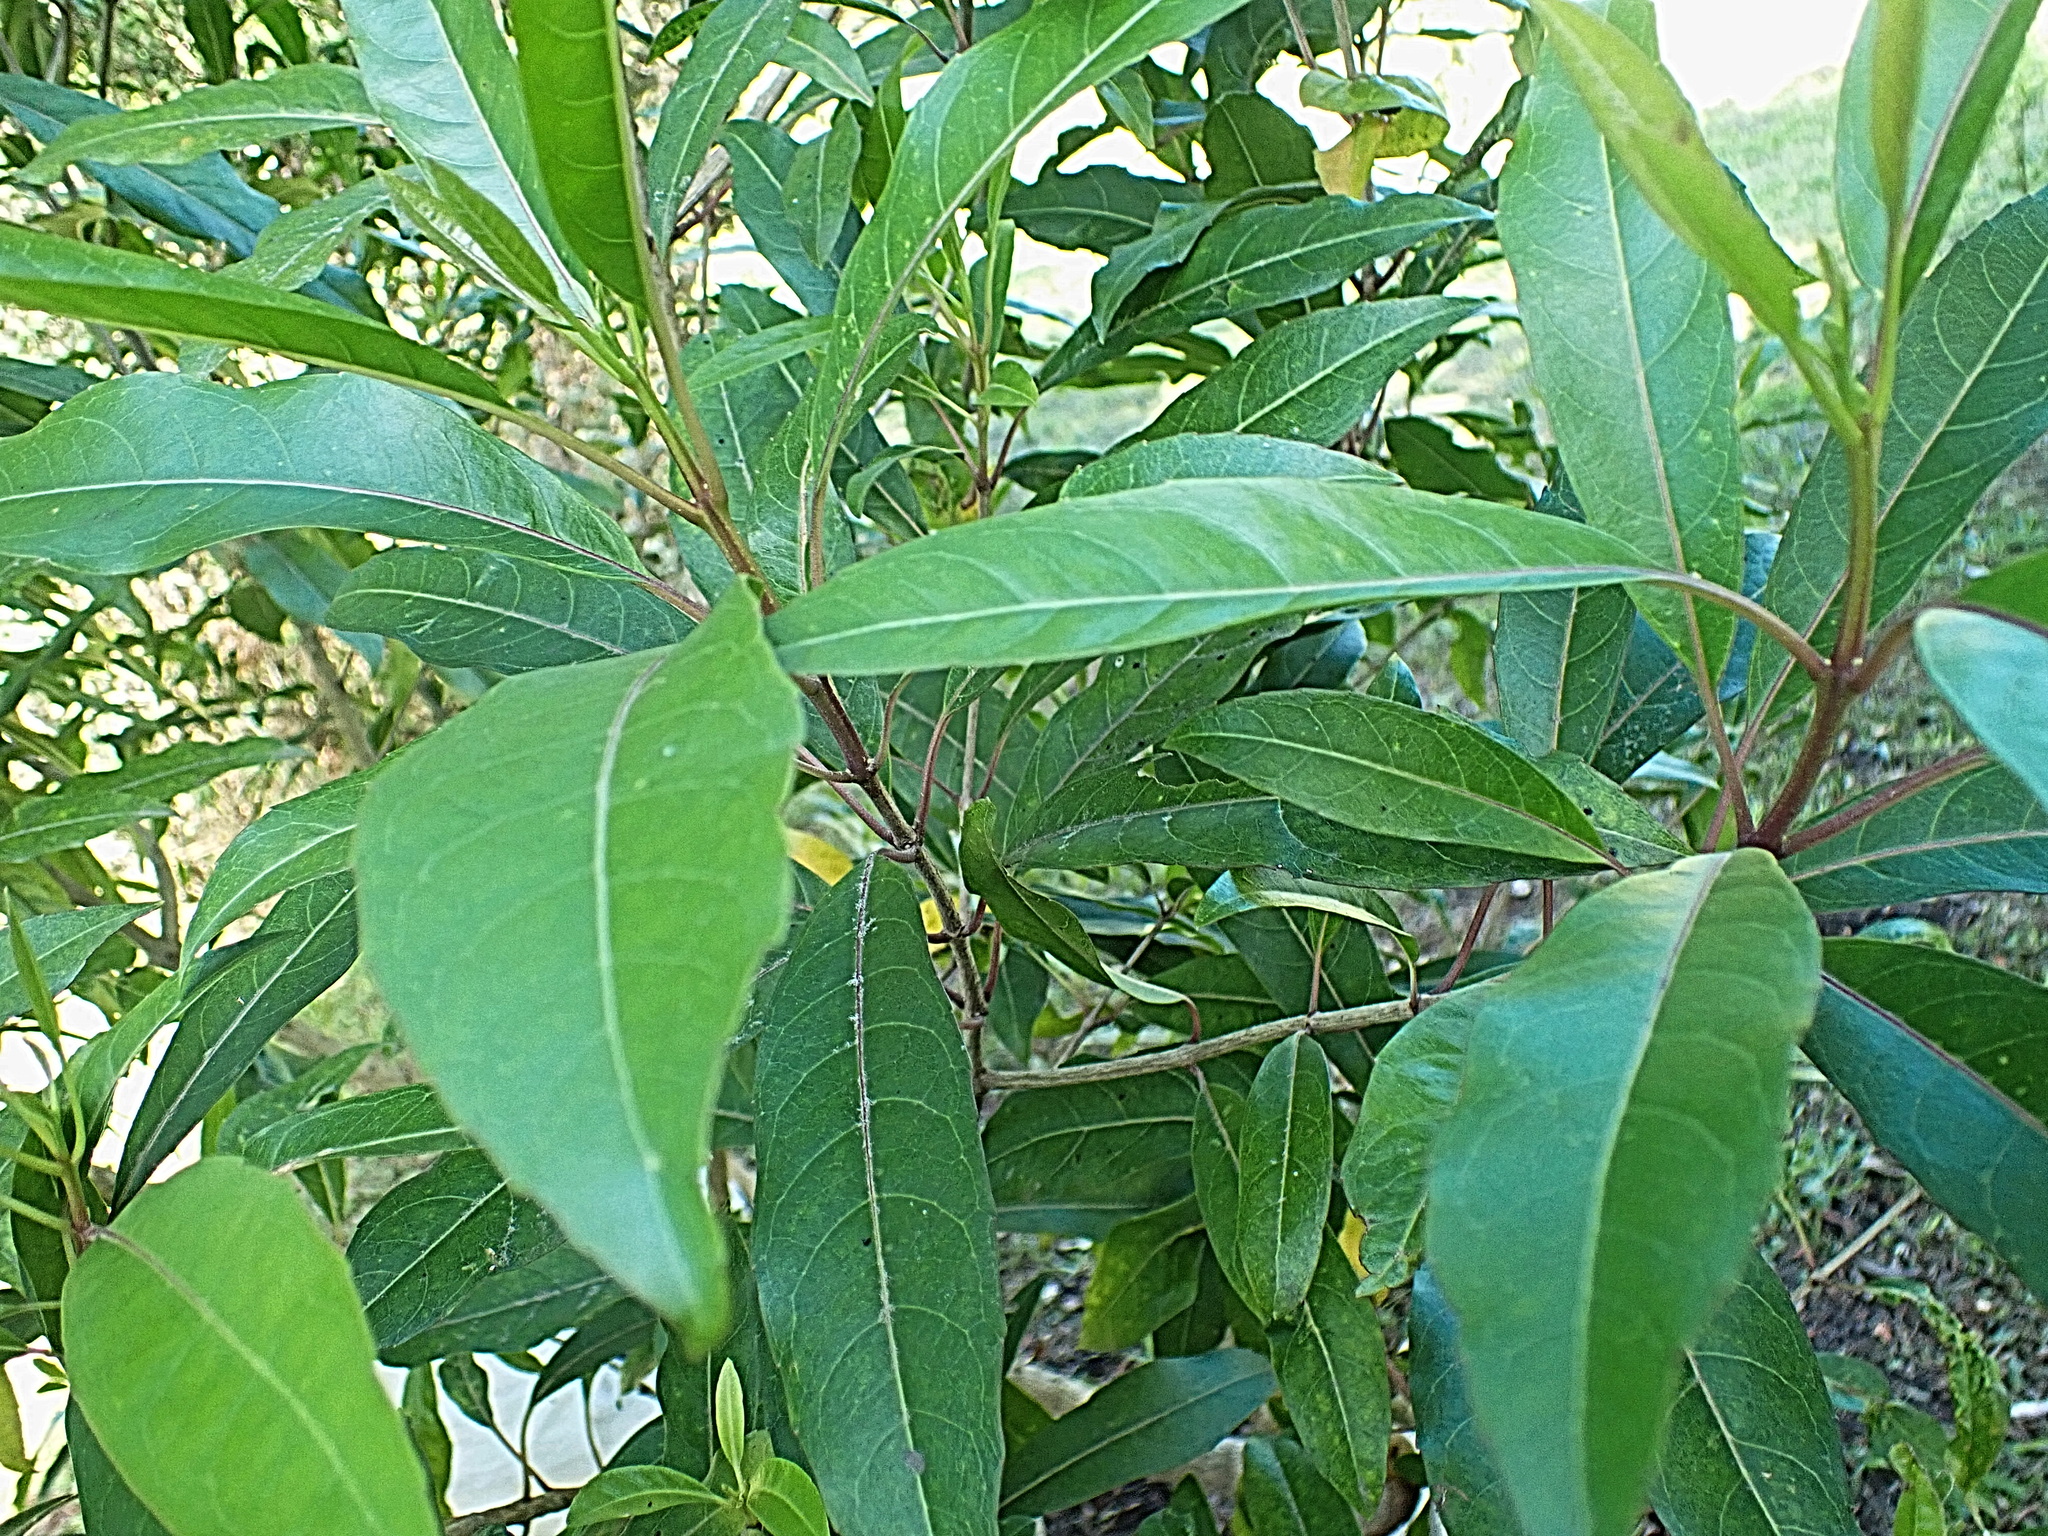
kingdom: Plantae
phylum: Tracheophyta
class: Magnoliopsida
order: Lamiales
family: Stilbaceae
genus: Nuxia
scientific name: Nuxia floribunda
